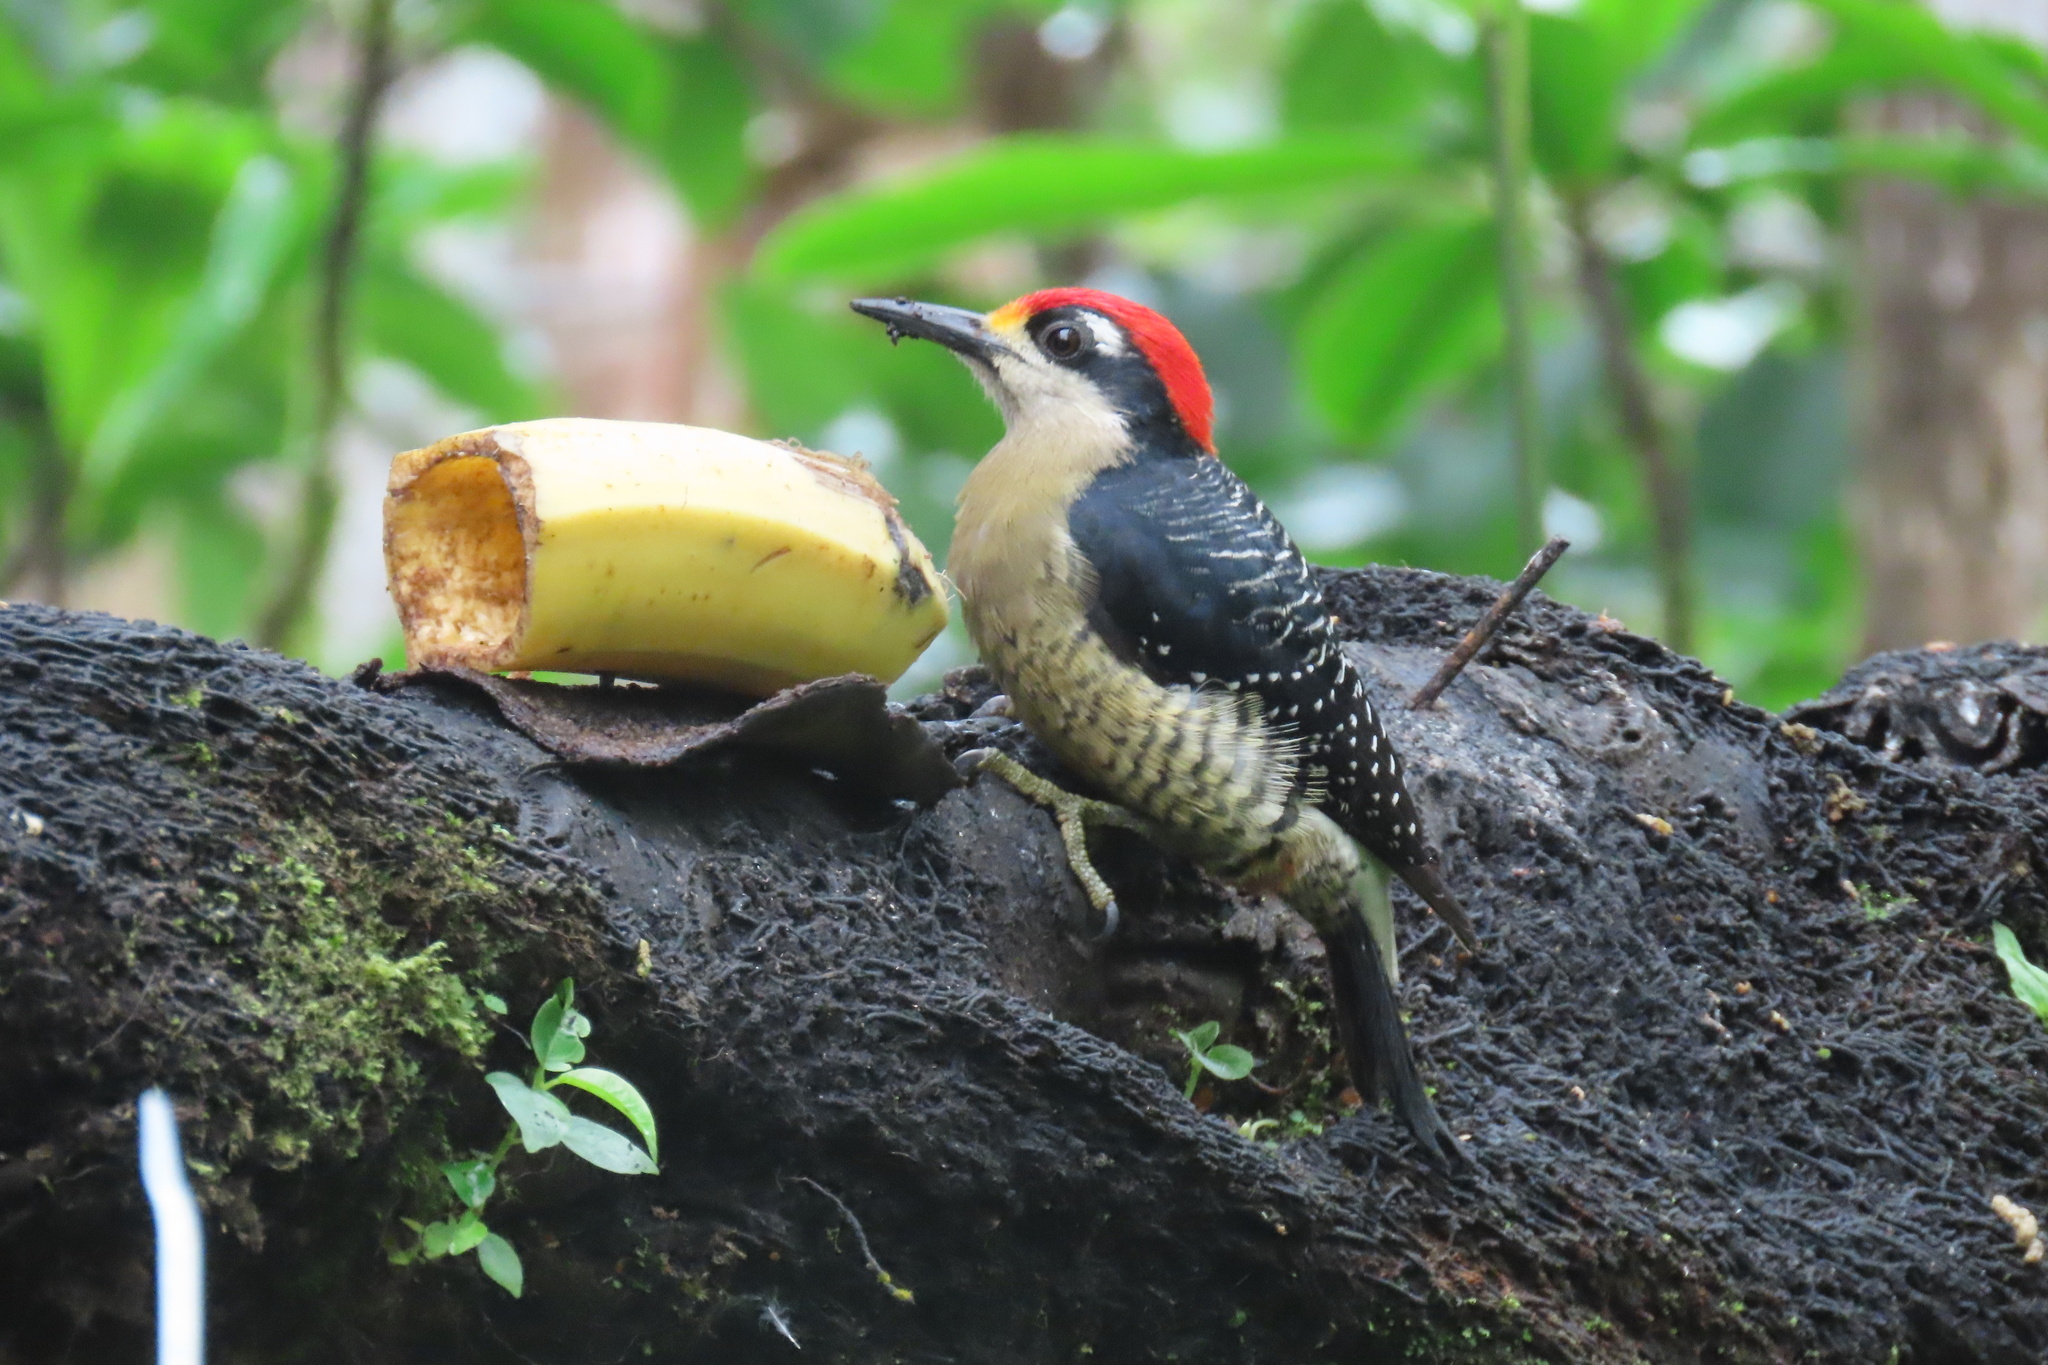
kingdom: Animalia
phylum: Chordata
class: Aves
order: Piciformes
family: Picidae
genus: Melanerpes
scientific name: Melanerpes pucherani
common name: Black-cheeked woodpecker
